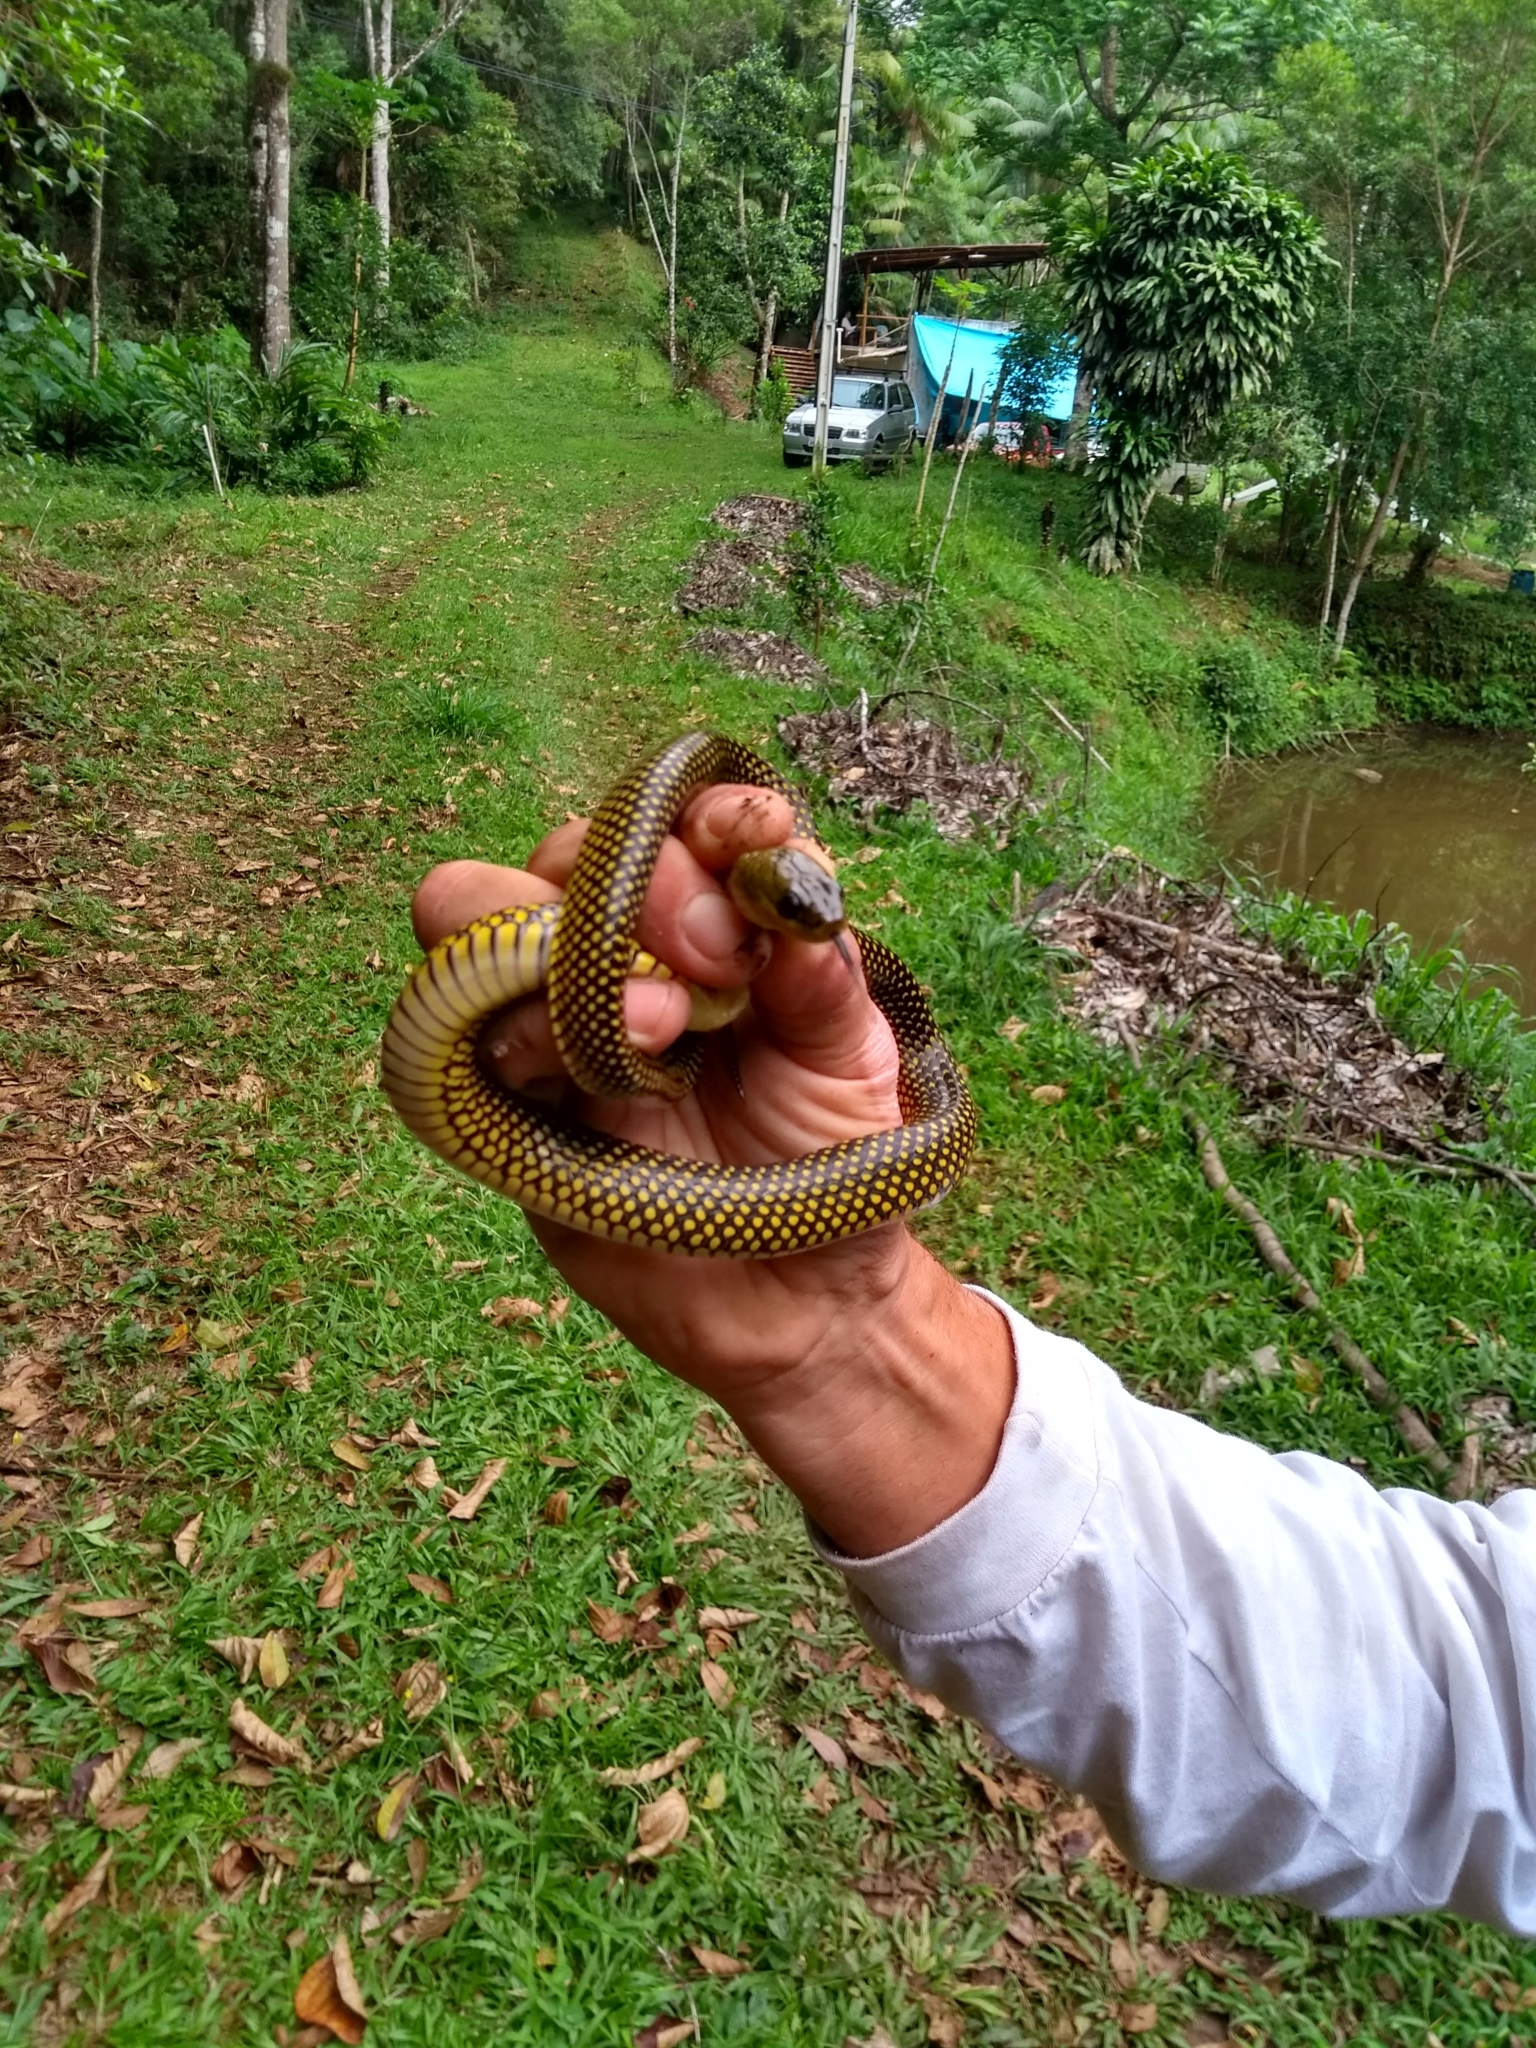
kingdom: Animalia
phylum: Chordata
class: Squamata
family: Colubridae
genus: Erythrolamprus
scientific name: Erythrolamprus miliaris
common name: Military ground snake
